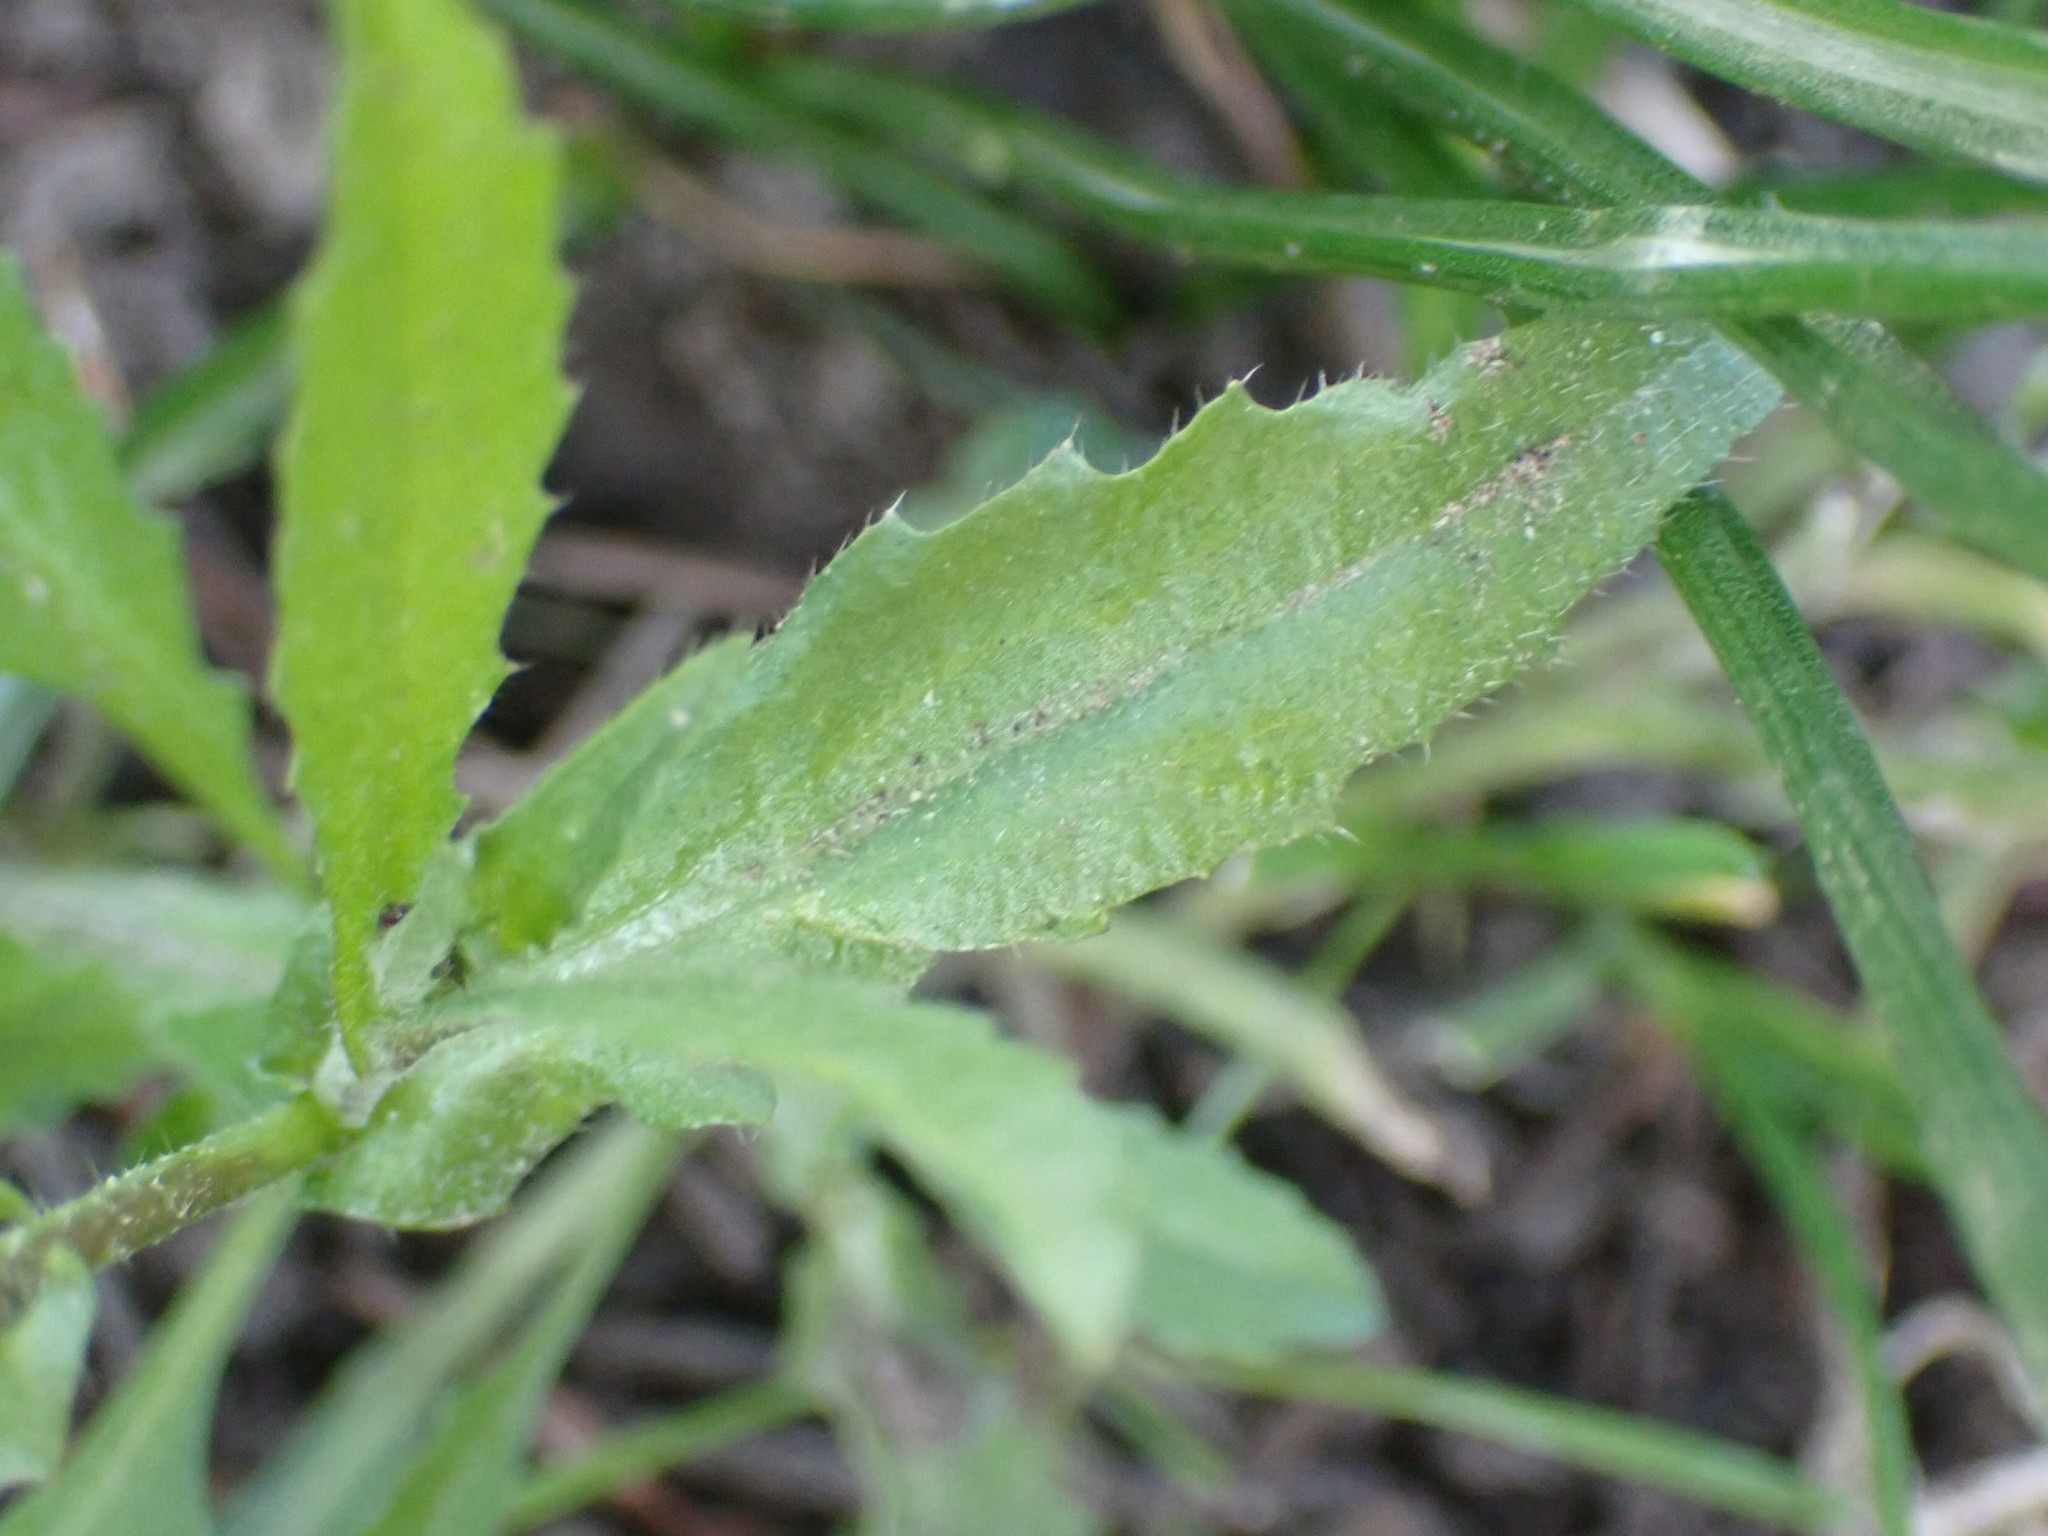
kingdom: Plantae
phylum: Tracheophyta
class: Magnoliopsida
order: Brassicales
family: Brassicaceae
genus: Capsella
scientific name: Capsella bursa-pastoris
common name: Shepherd's purse
